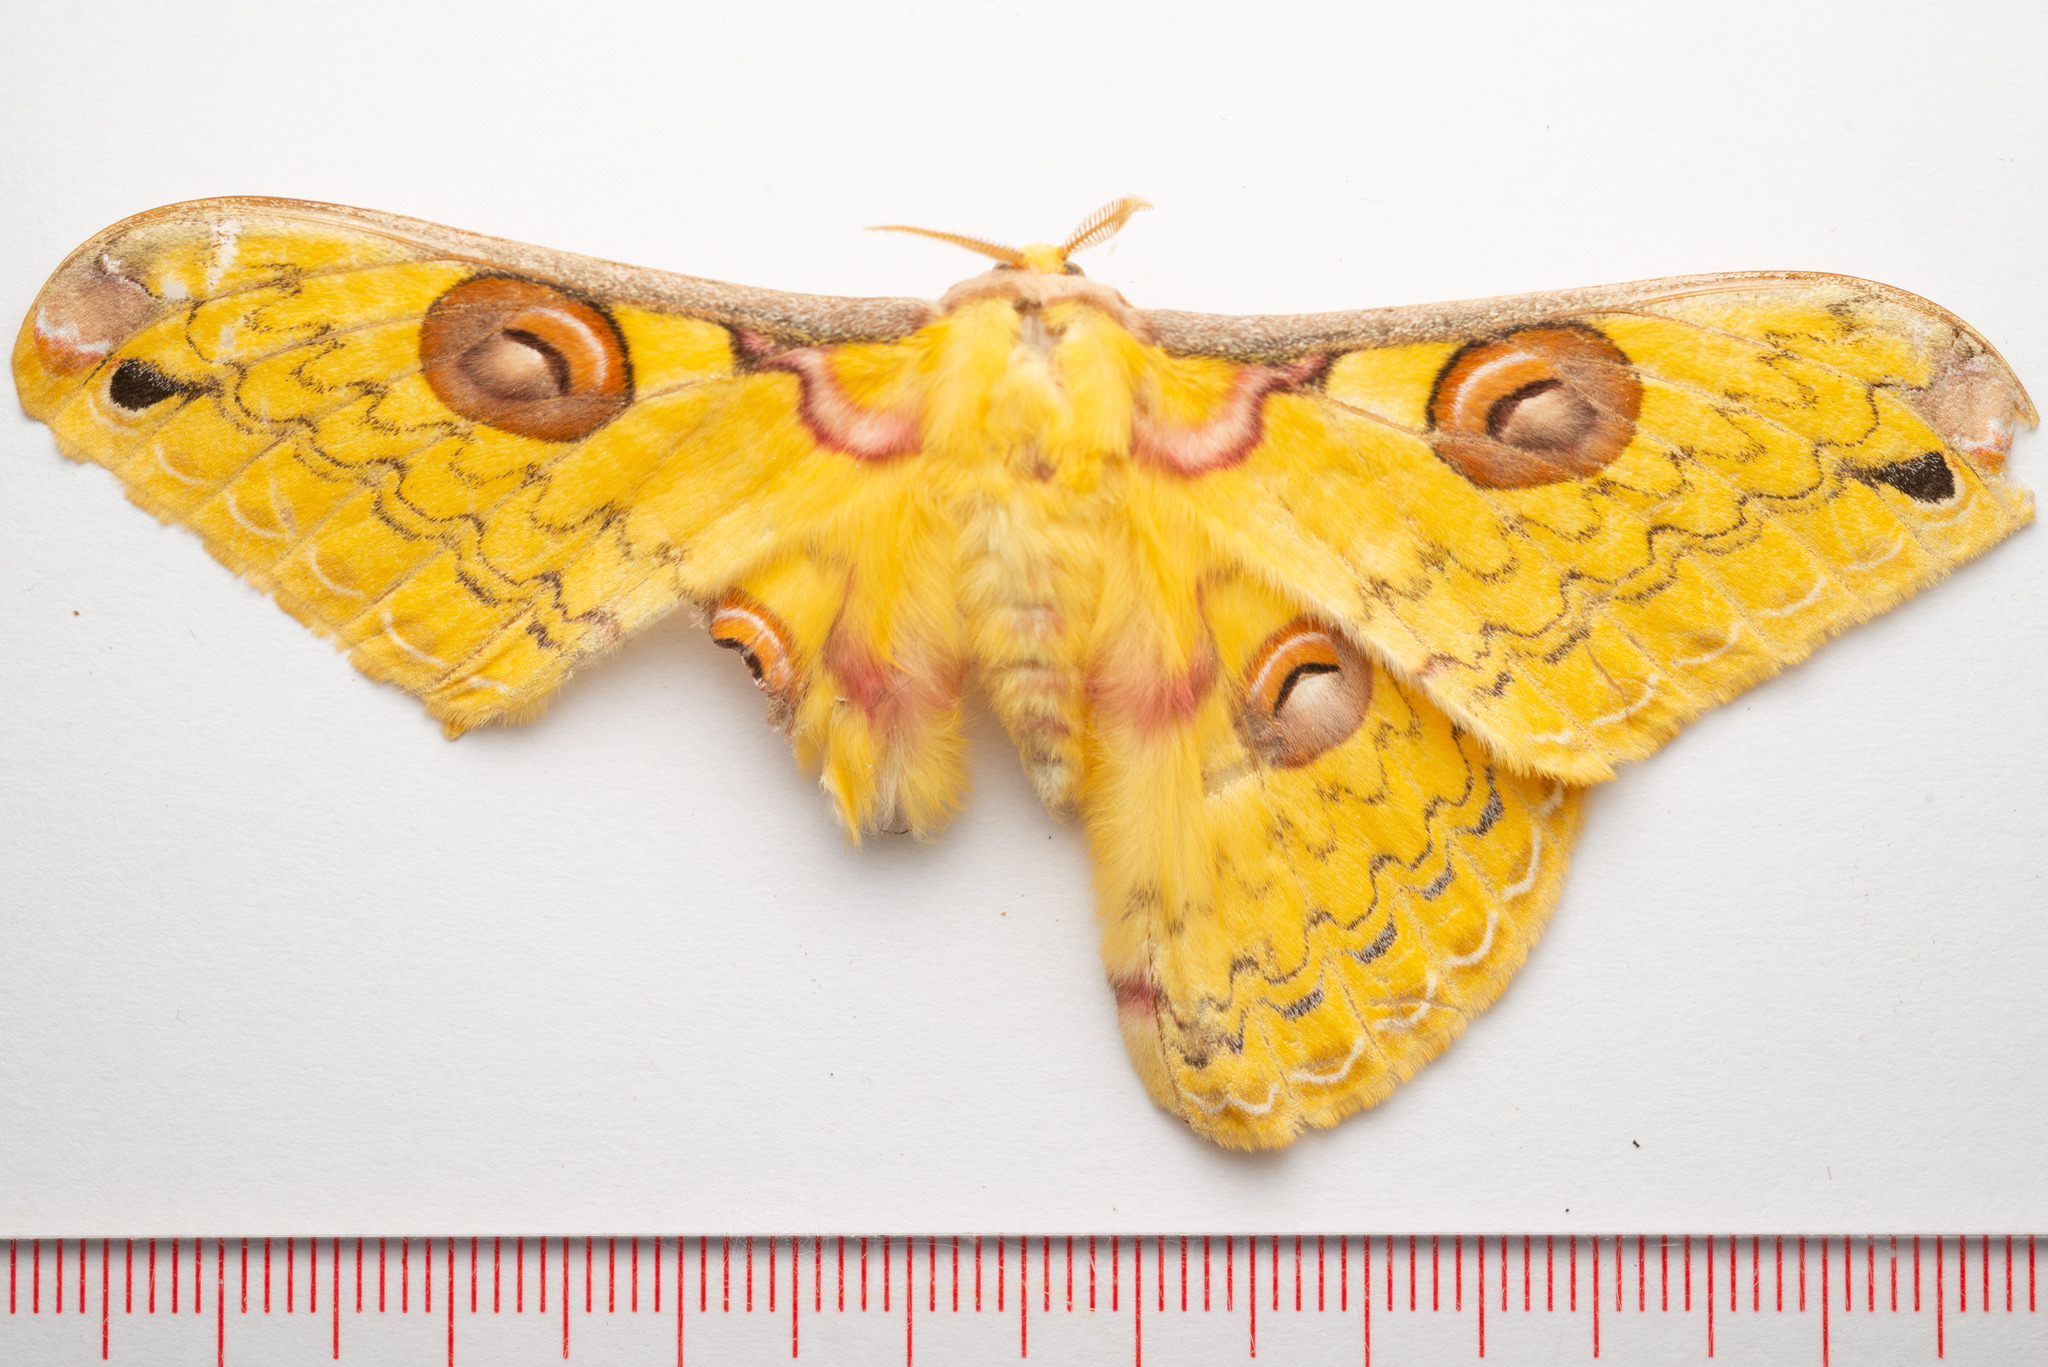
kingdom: Animalia
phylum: Arthropoda
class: Insecta
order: Lepidoptera
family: Saturniidae
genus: Loepa
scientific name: Loepa sikkima
